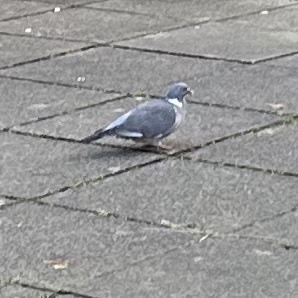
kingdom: Animalia
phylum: Chordata
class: Aves
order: Columbiformes
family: Columbidae
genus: Columba
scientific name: Columba palumbus
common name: Common wood pigeon
